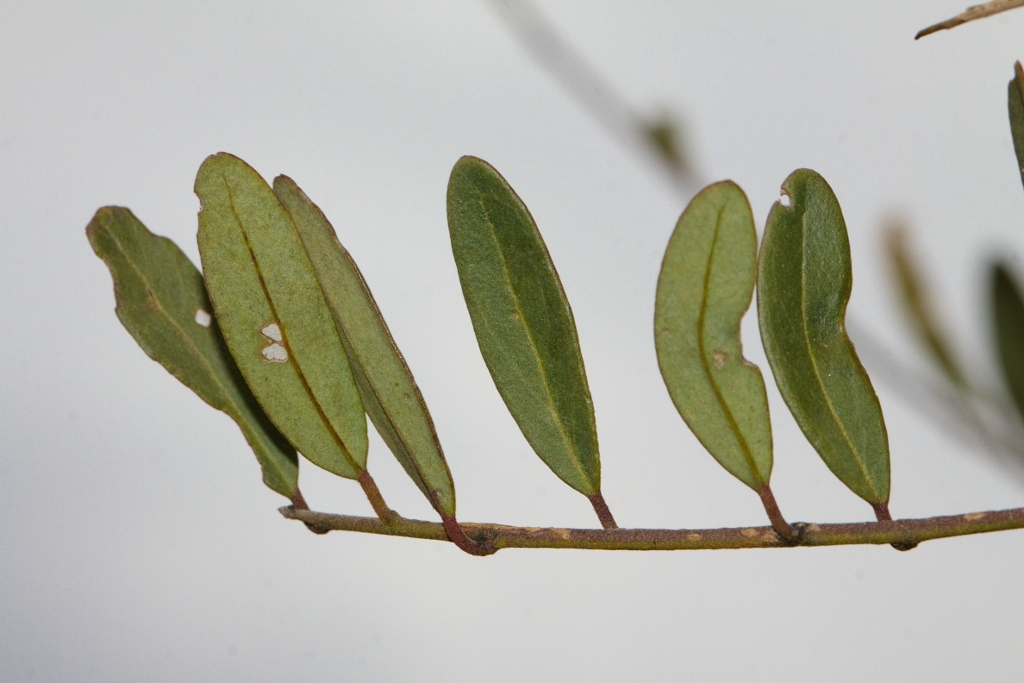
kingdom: Plantae
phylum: Tracheophyta
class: Magnoliopsida
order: Fabales
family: Polygalaceae
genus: Securidaca
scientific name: Securidaca longepedunculata
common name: Violet tree
